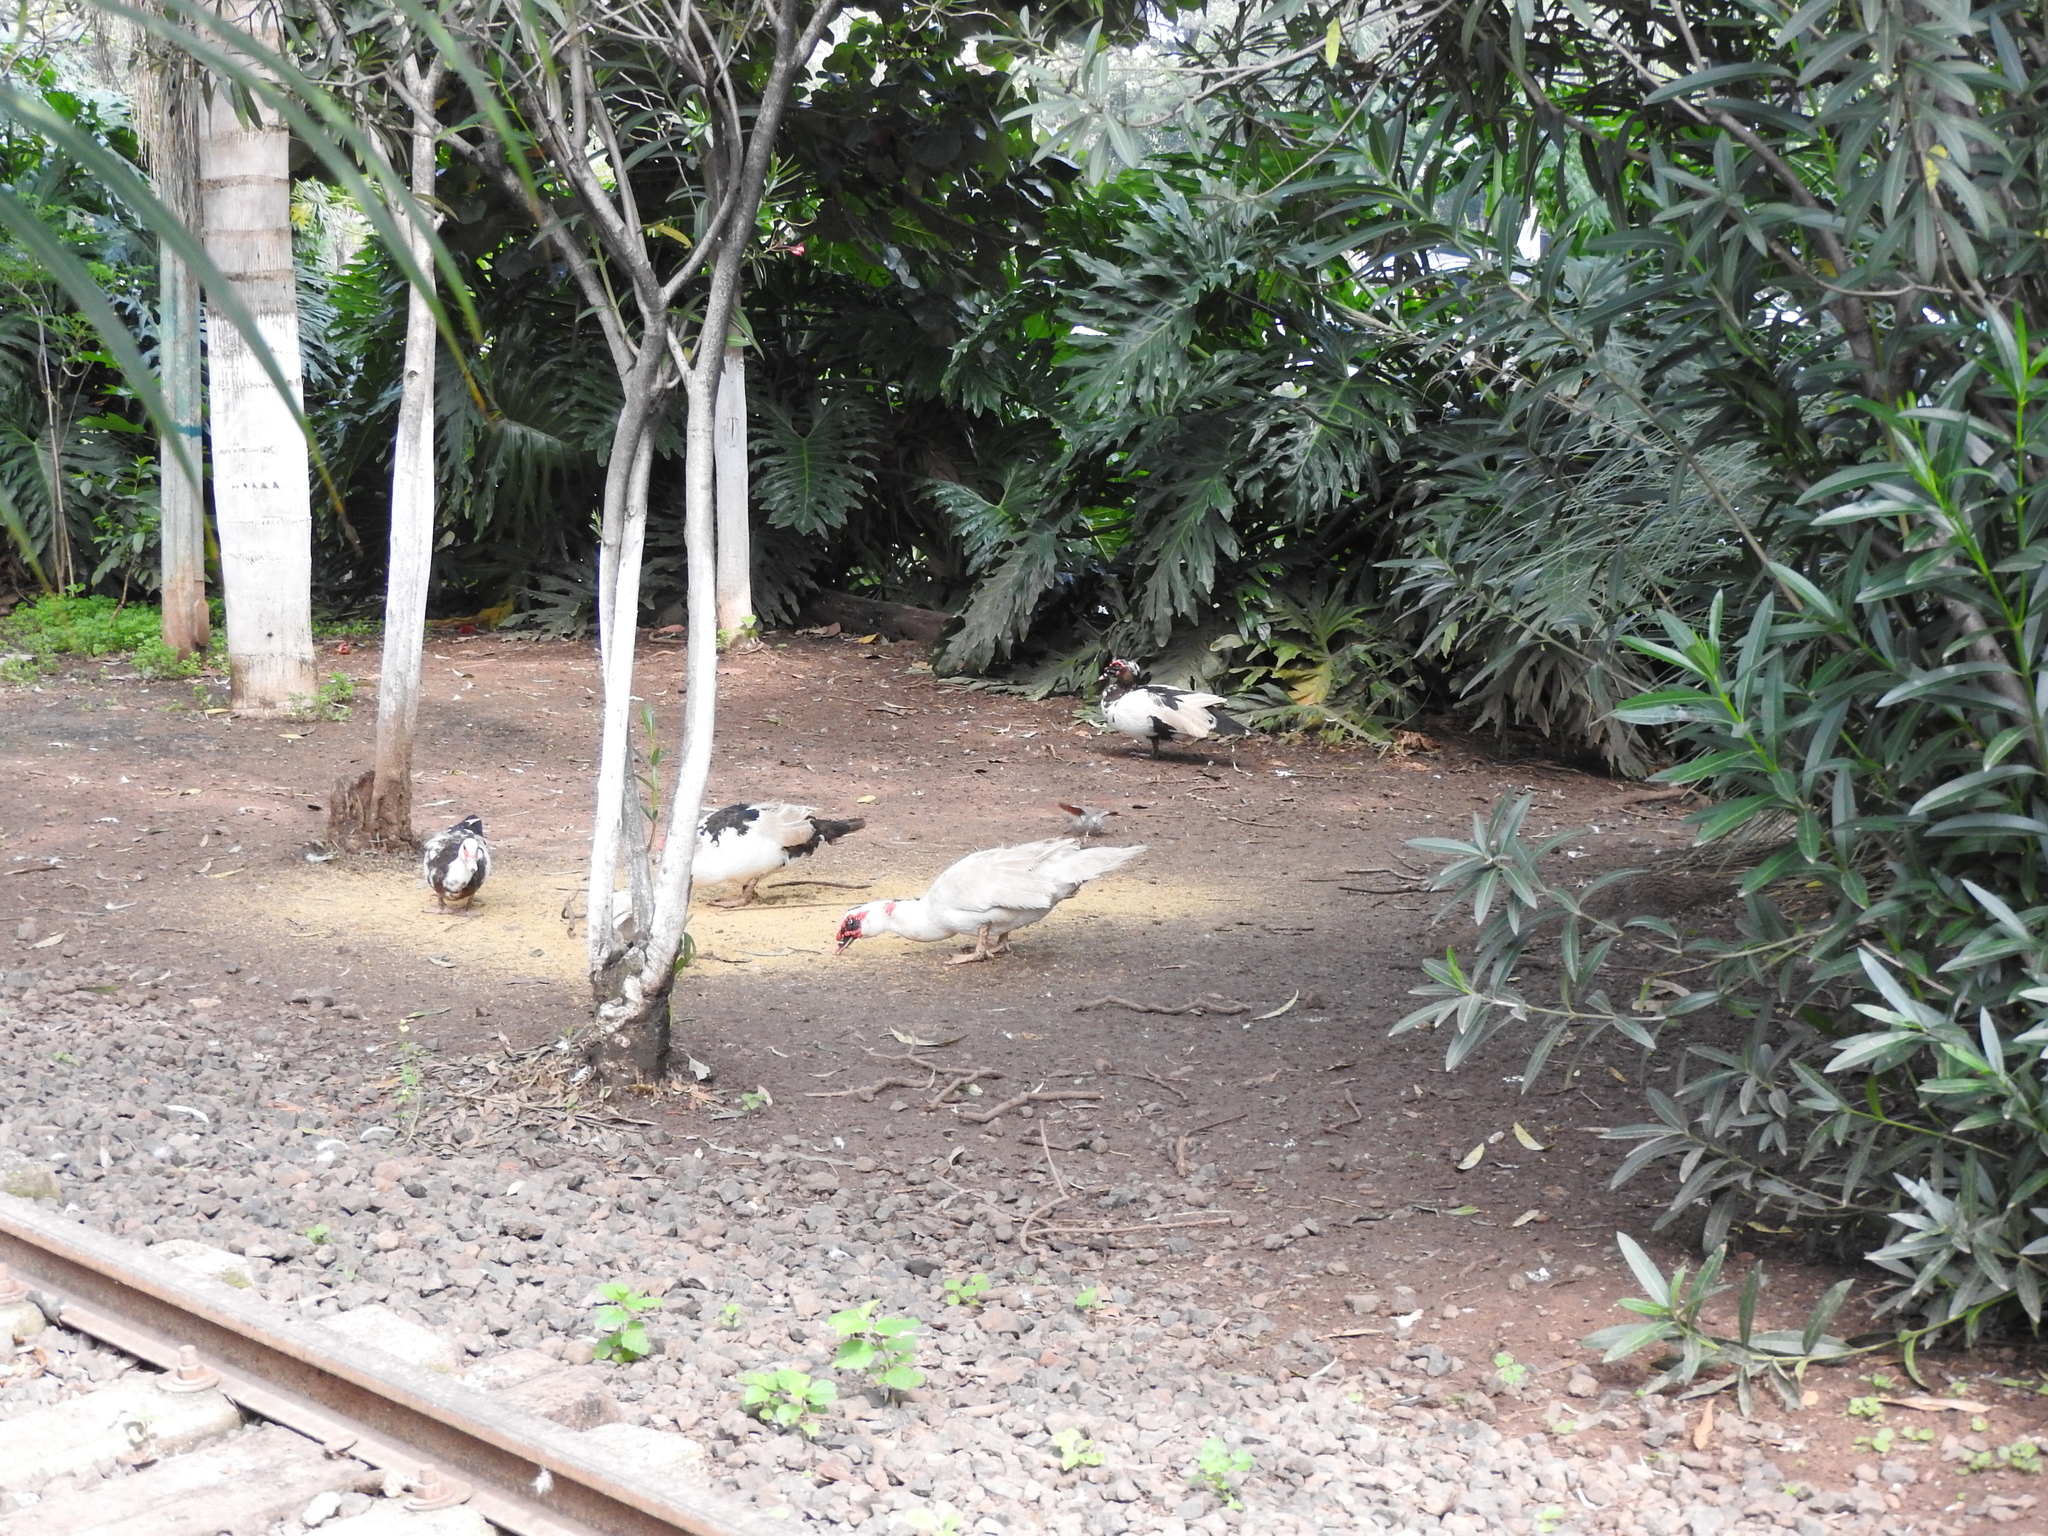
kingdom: Animalia
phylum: Chordata
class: Aves
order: Anseriformes
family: Anatidae
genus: Cairina
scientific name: Cairina moschata
